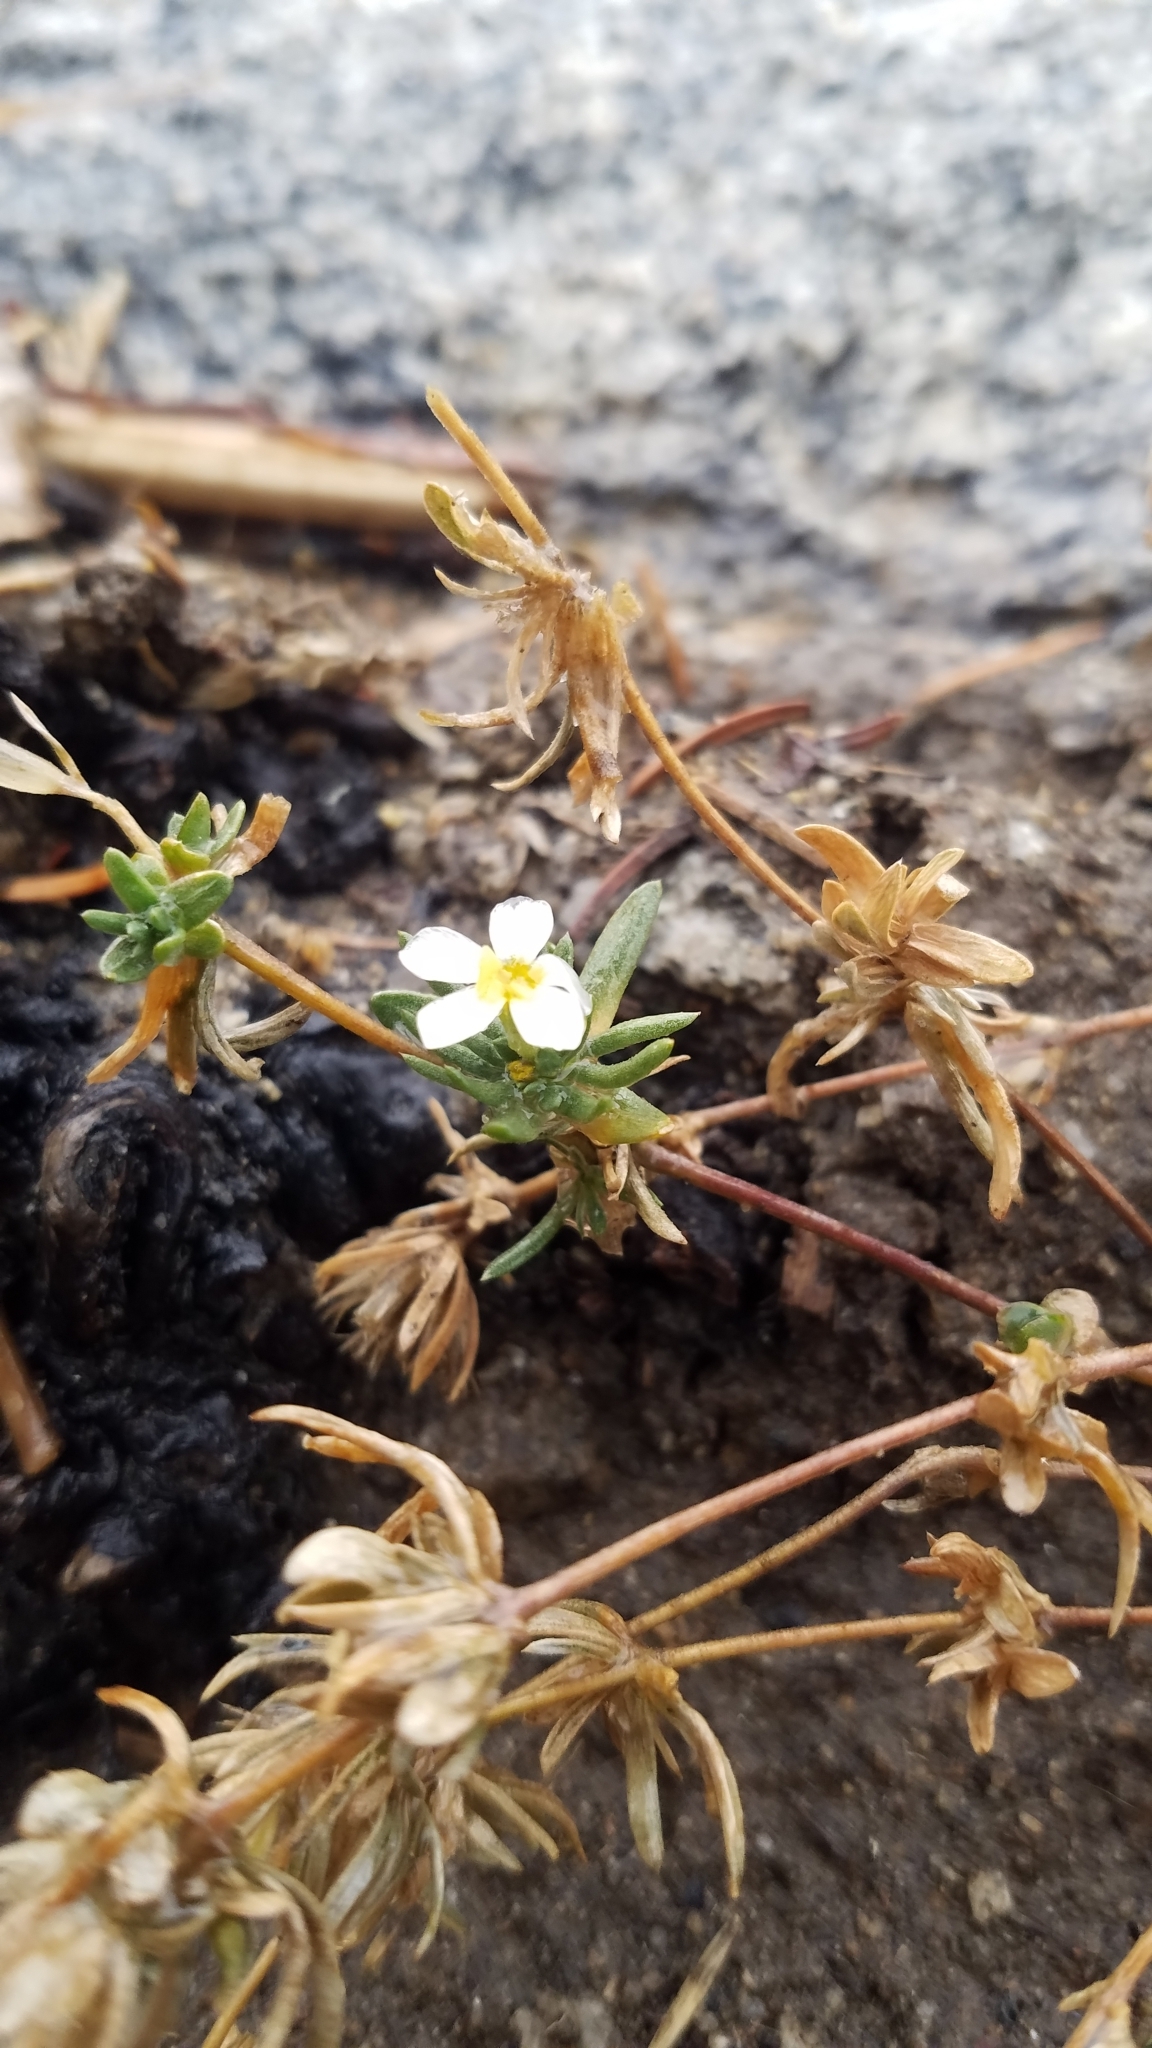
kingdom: Plantae
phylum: Tracheophyta
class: Magnoliopsida
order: Ericales
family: Polemoniaceae
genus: Leptosiphon
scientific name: Leptosiphon nuttallii
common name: Nuttall's linanthus
